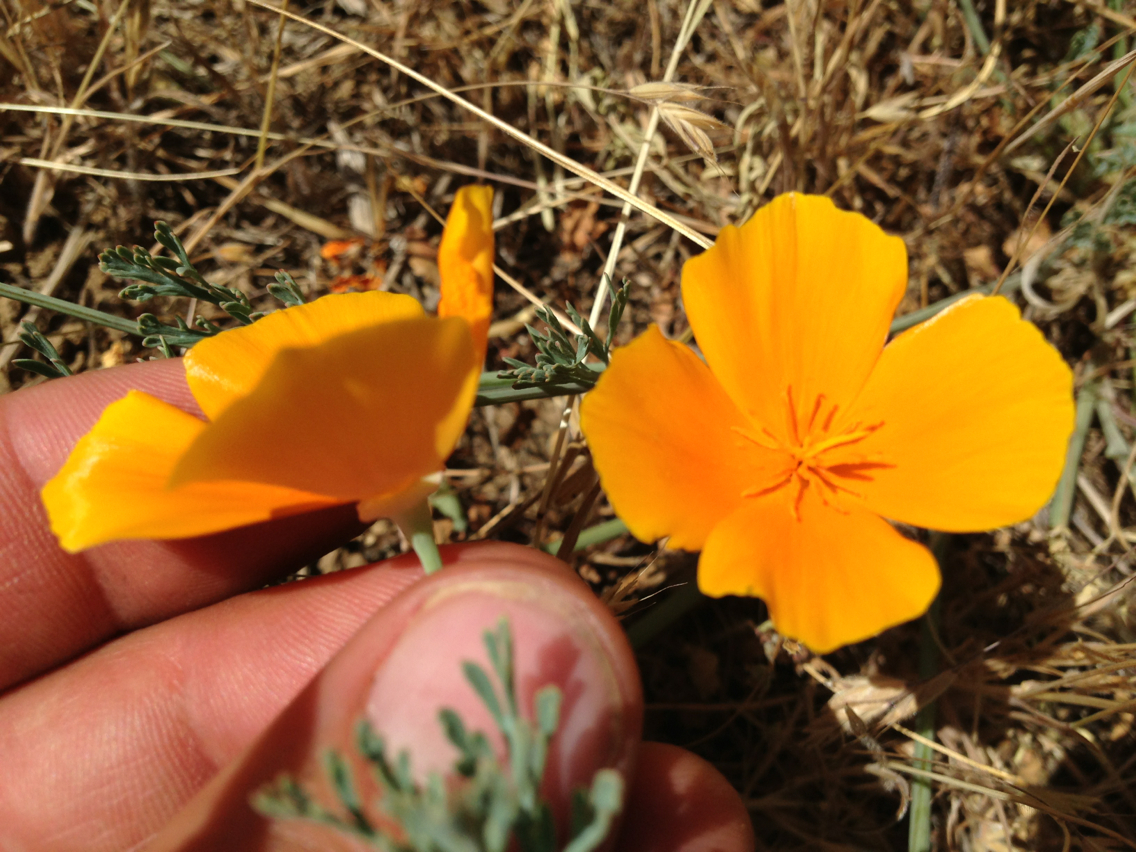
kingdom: Plantae
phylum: Tracheophyta
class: Magnoliopsida
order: Ranunculales
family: Papaveraceae
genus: Eschscholzia
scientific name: Eschscholzia californica
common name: California poppy
